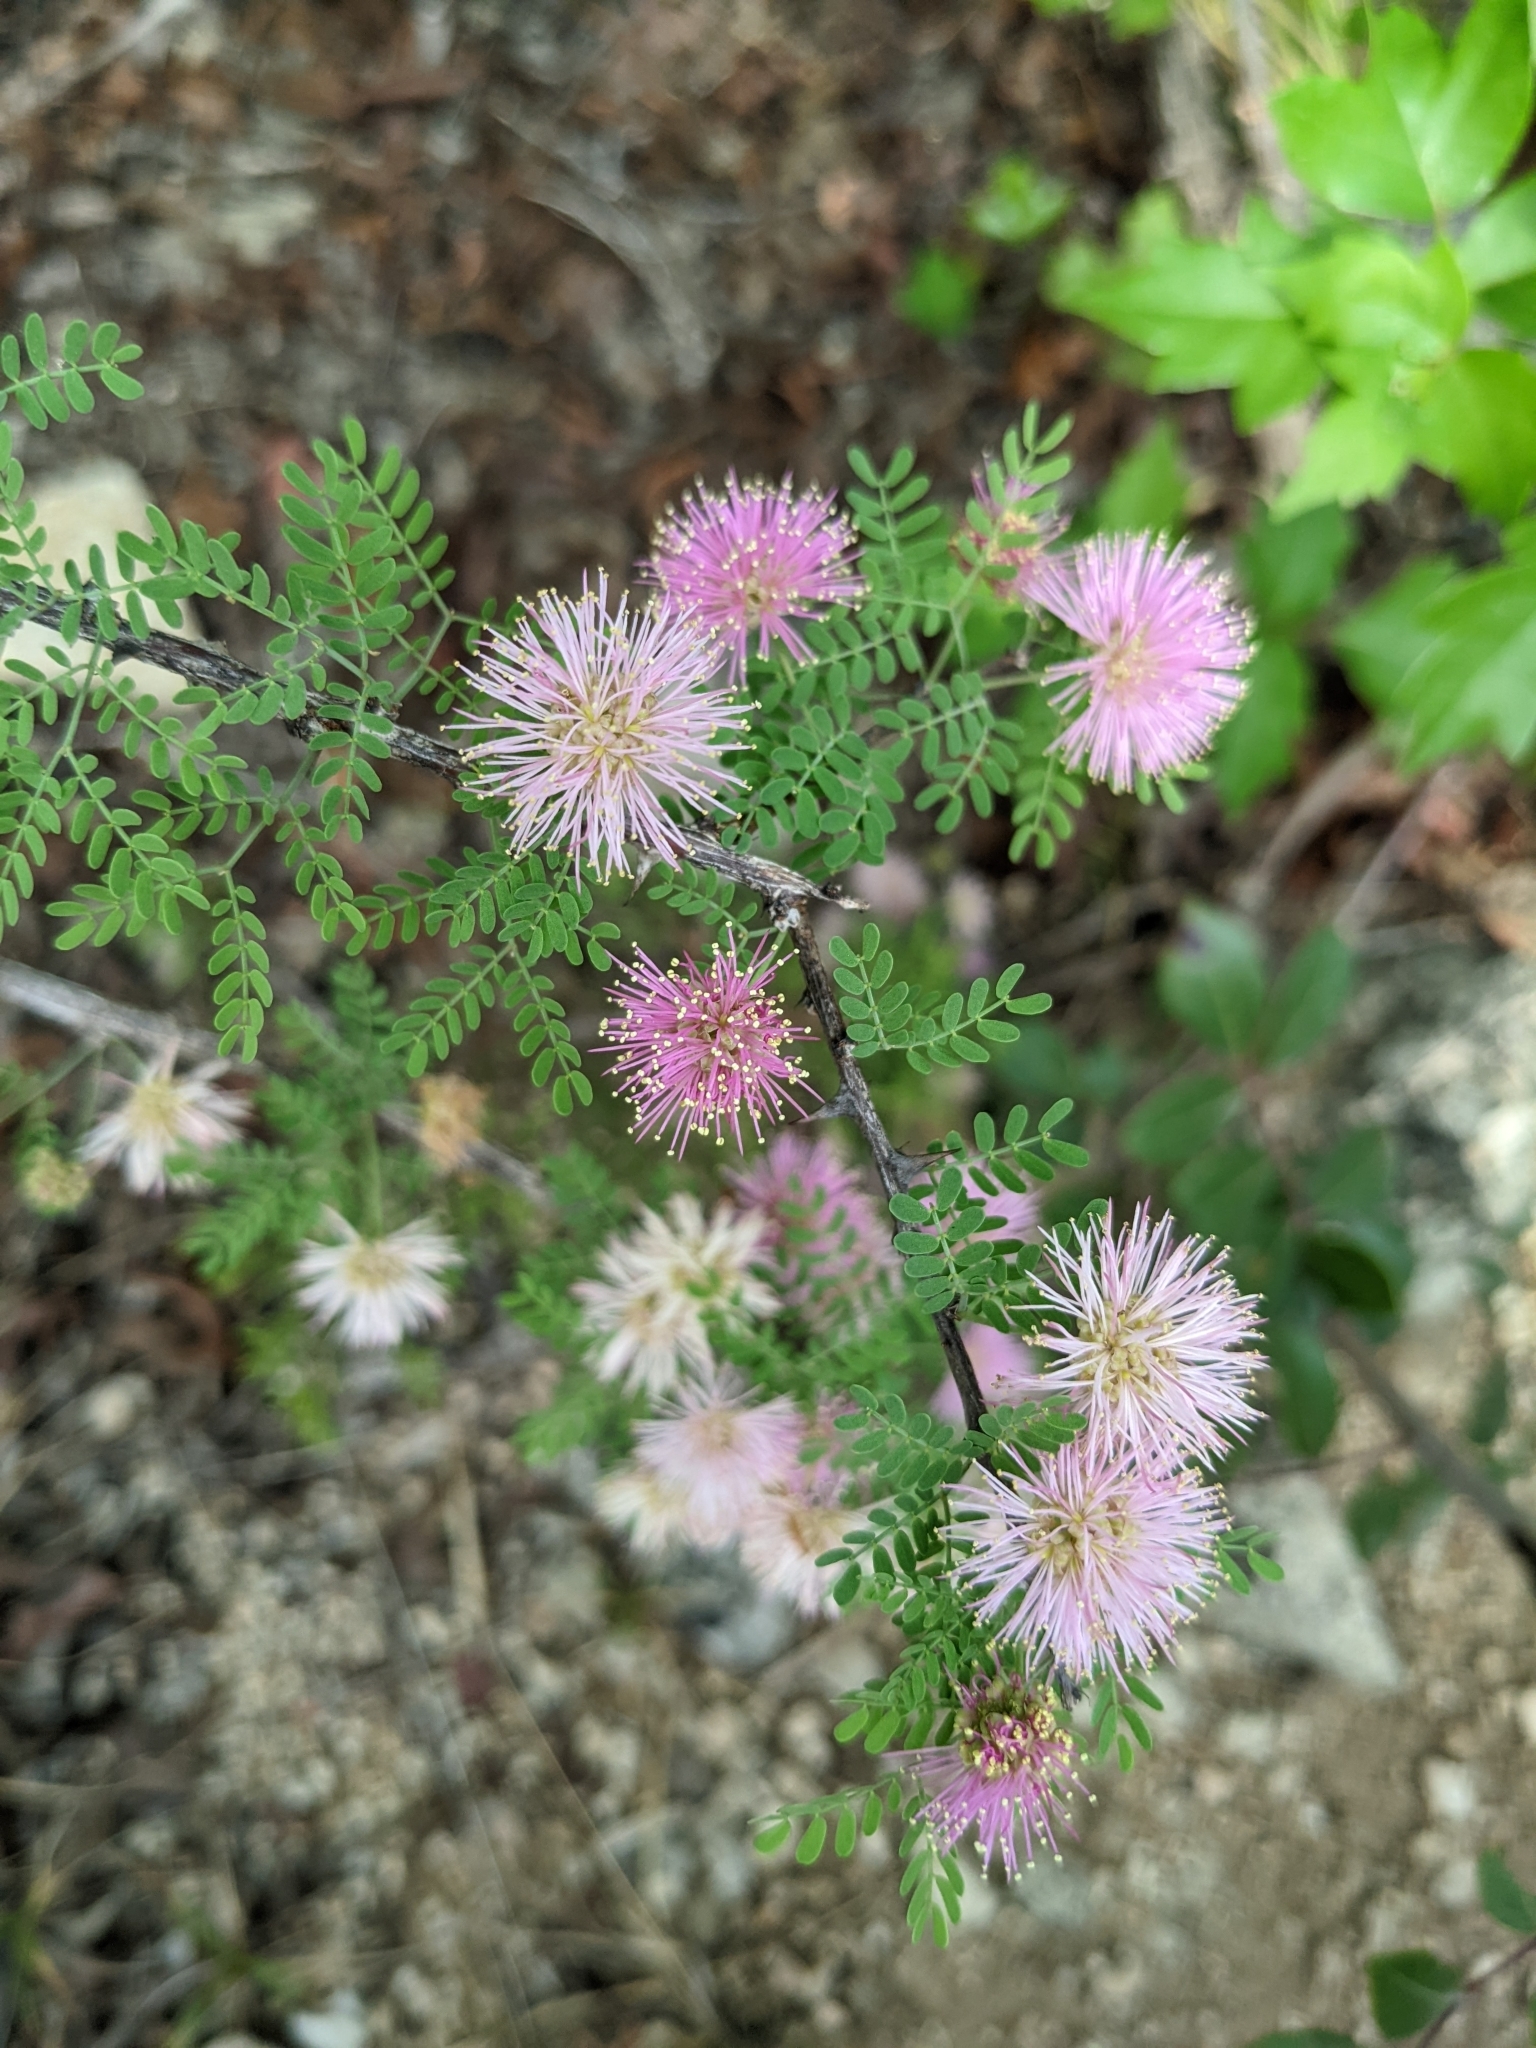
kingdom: Plantae
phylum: Tracheophyta
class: Magnoliopsida
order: Fabales
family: Fabaceae
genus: Mimosa
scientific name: Mimosa borealis
